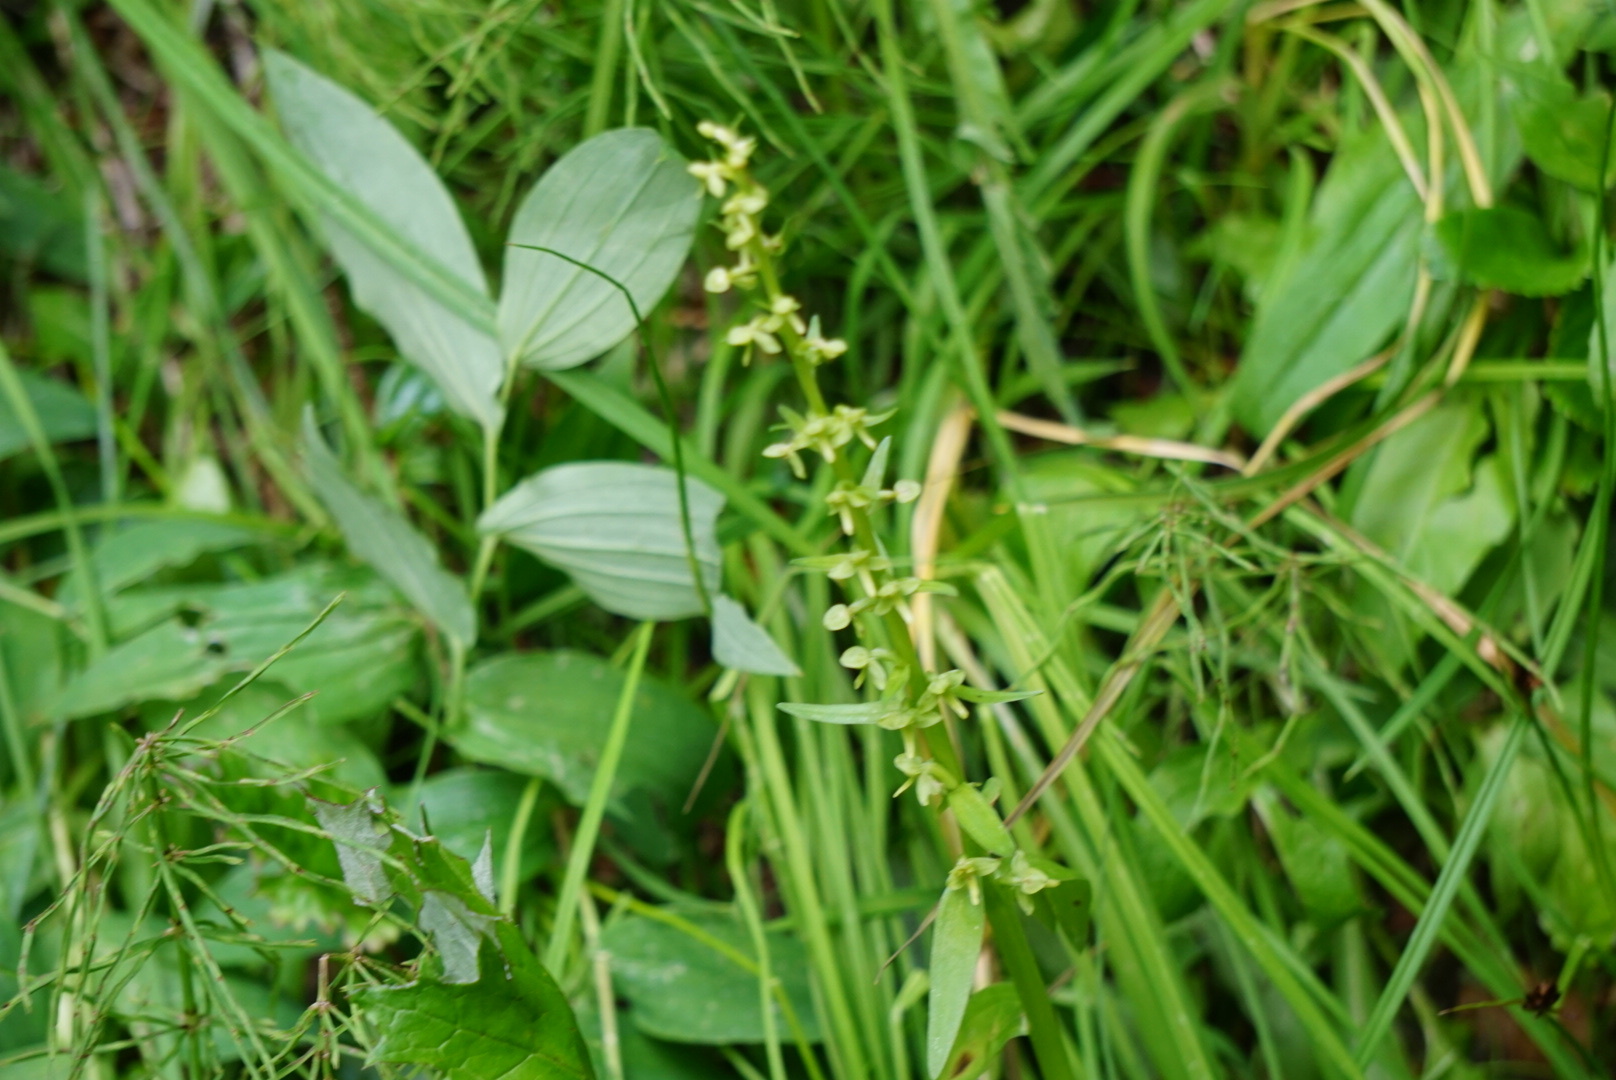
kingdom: Plantae
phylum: Tracheophyta
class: Liliopsida
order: Asparagales
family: Orchidaceae
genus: Platanthera
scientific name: Platanthera stricta
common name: Slender bog orchid
